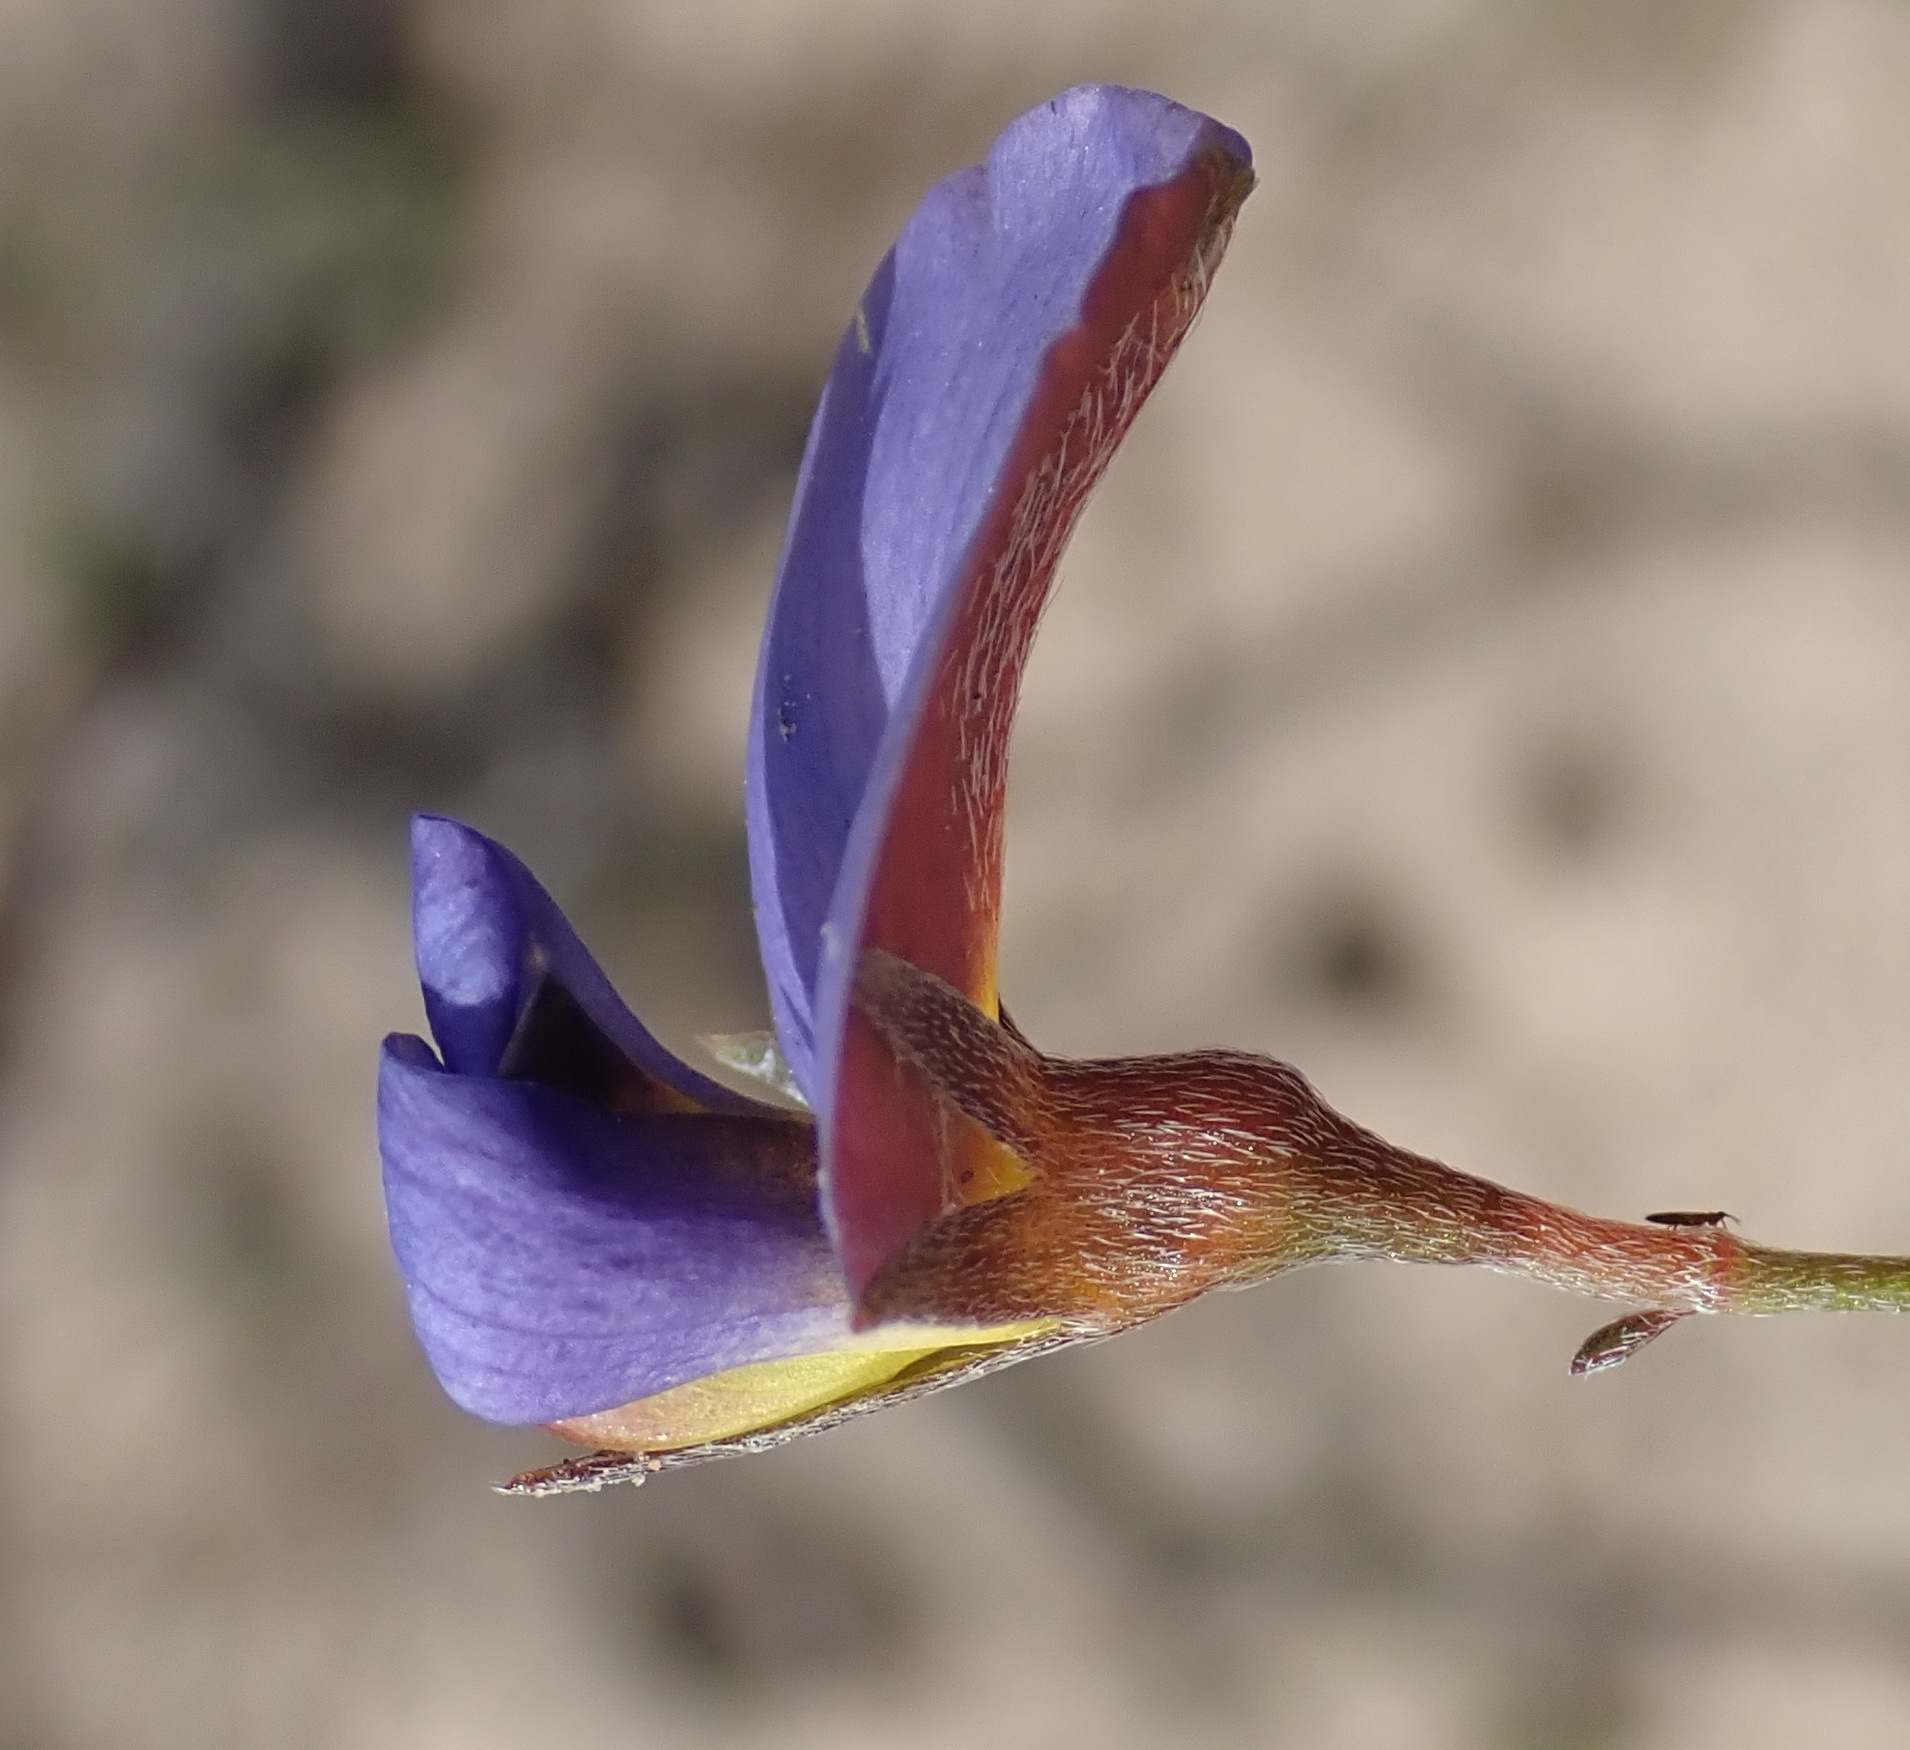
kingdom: Plantae
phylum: Tracheophyta
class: Magnoliopsida
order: Fabales
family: Fabaceae
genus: Lotononis
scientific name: Lotononis filiformis
